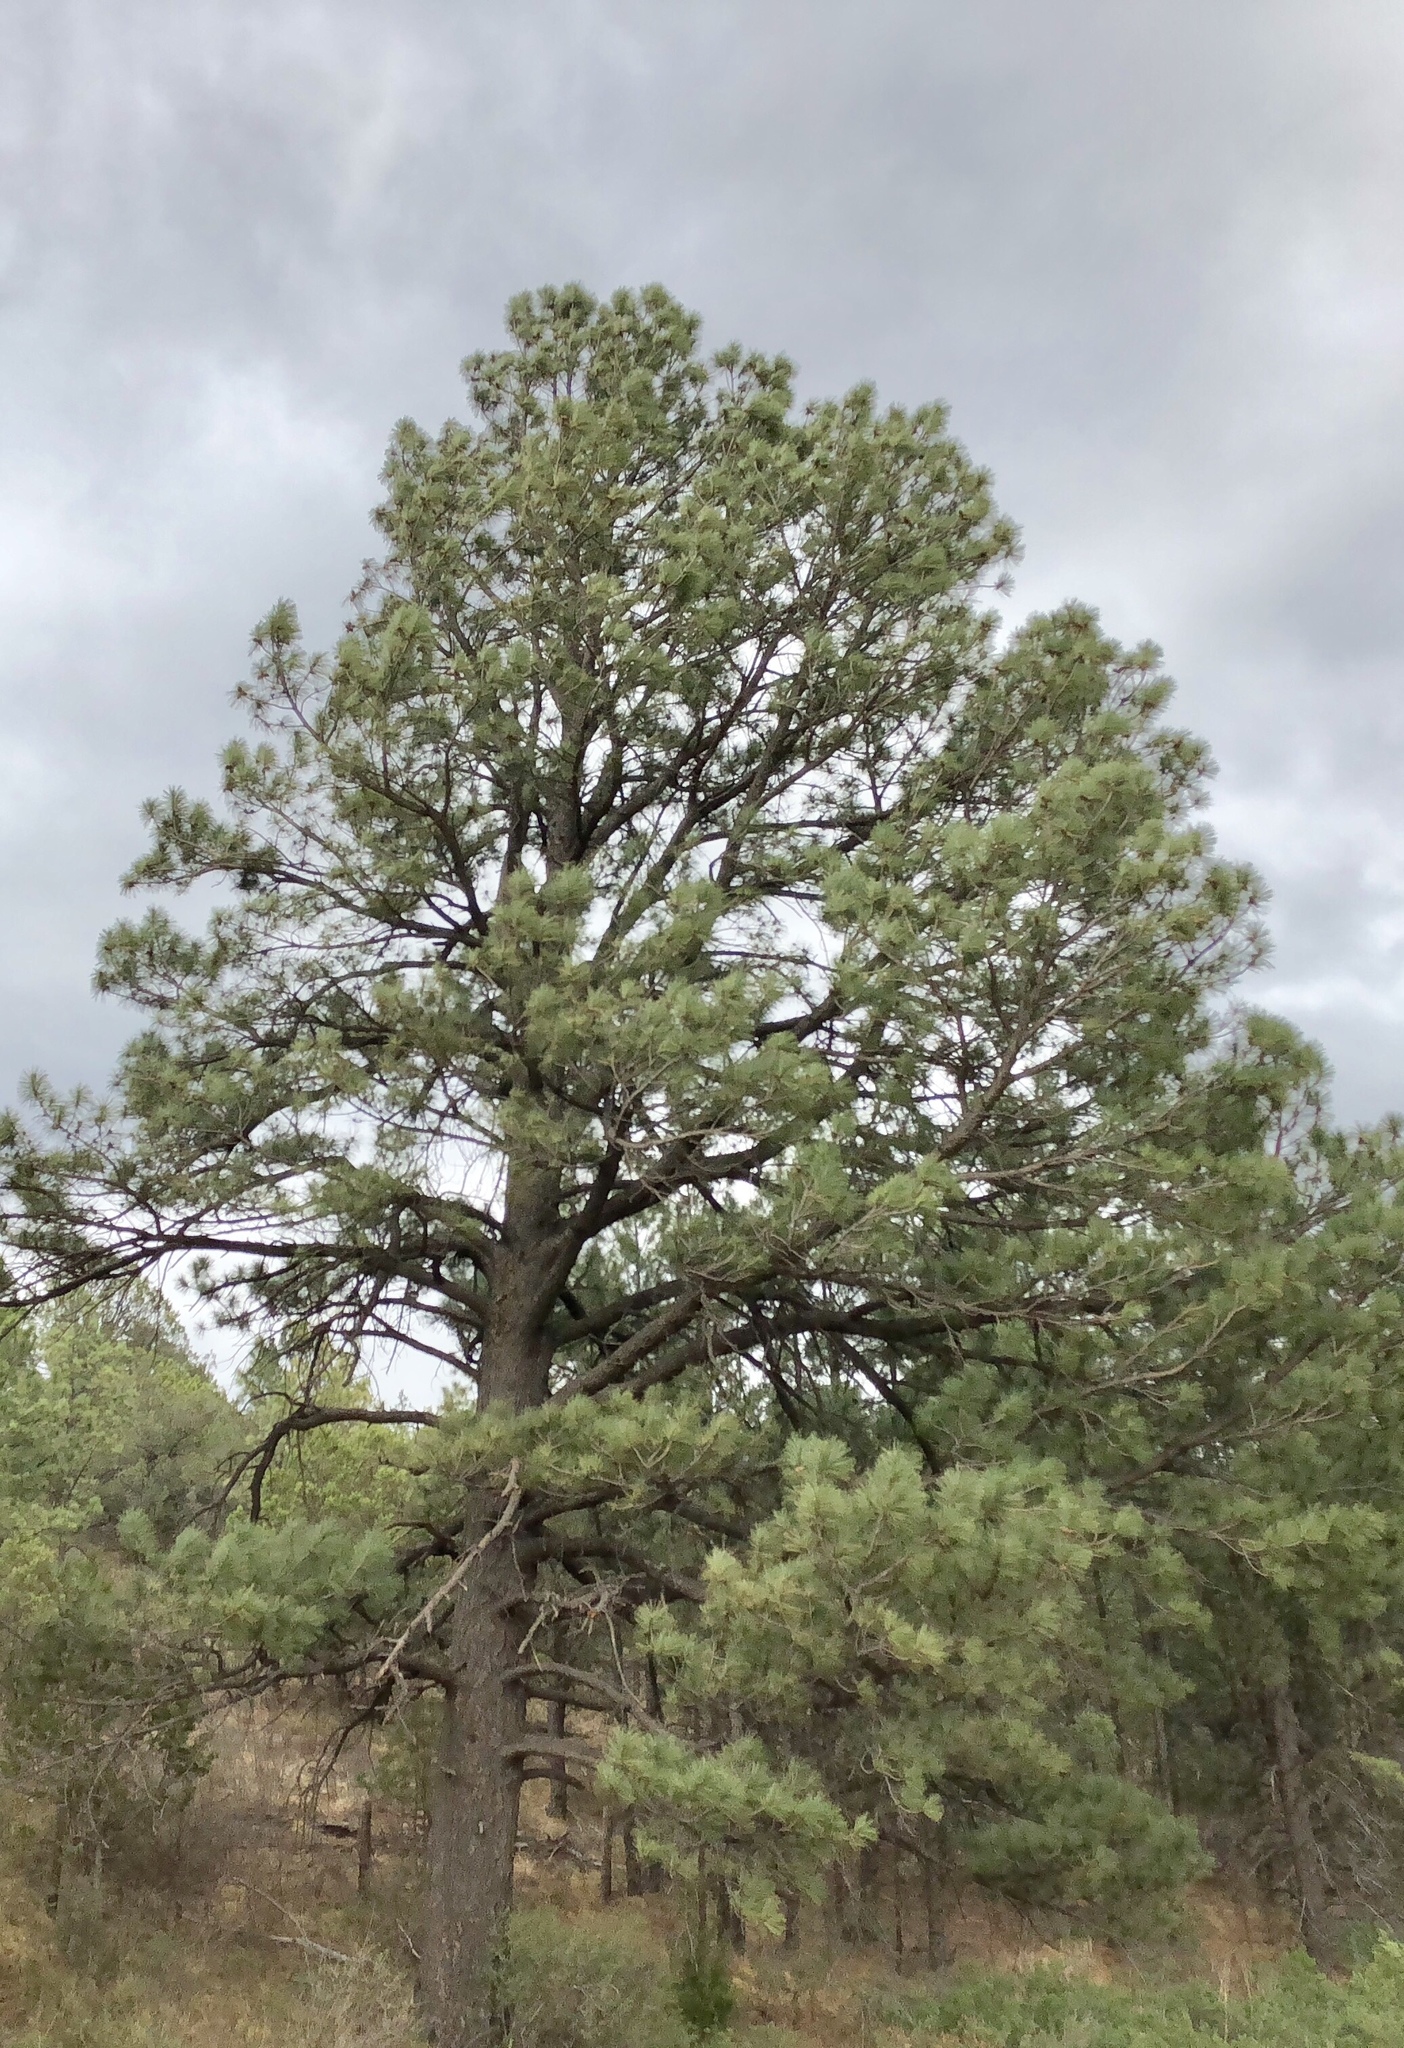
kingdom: Plantae
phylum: Tracheophyta
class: Pinopsida
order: Pinales
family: Pinaceae
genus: Pinus
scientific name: Pinus ponderosa
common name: Western yellow-pine
